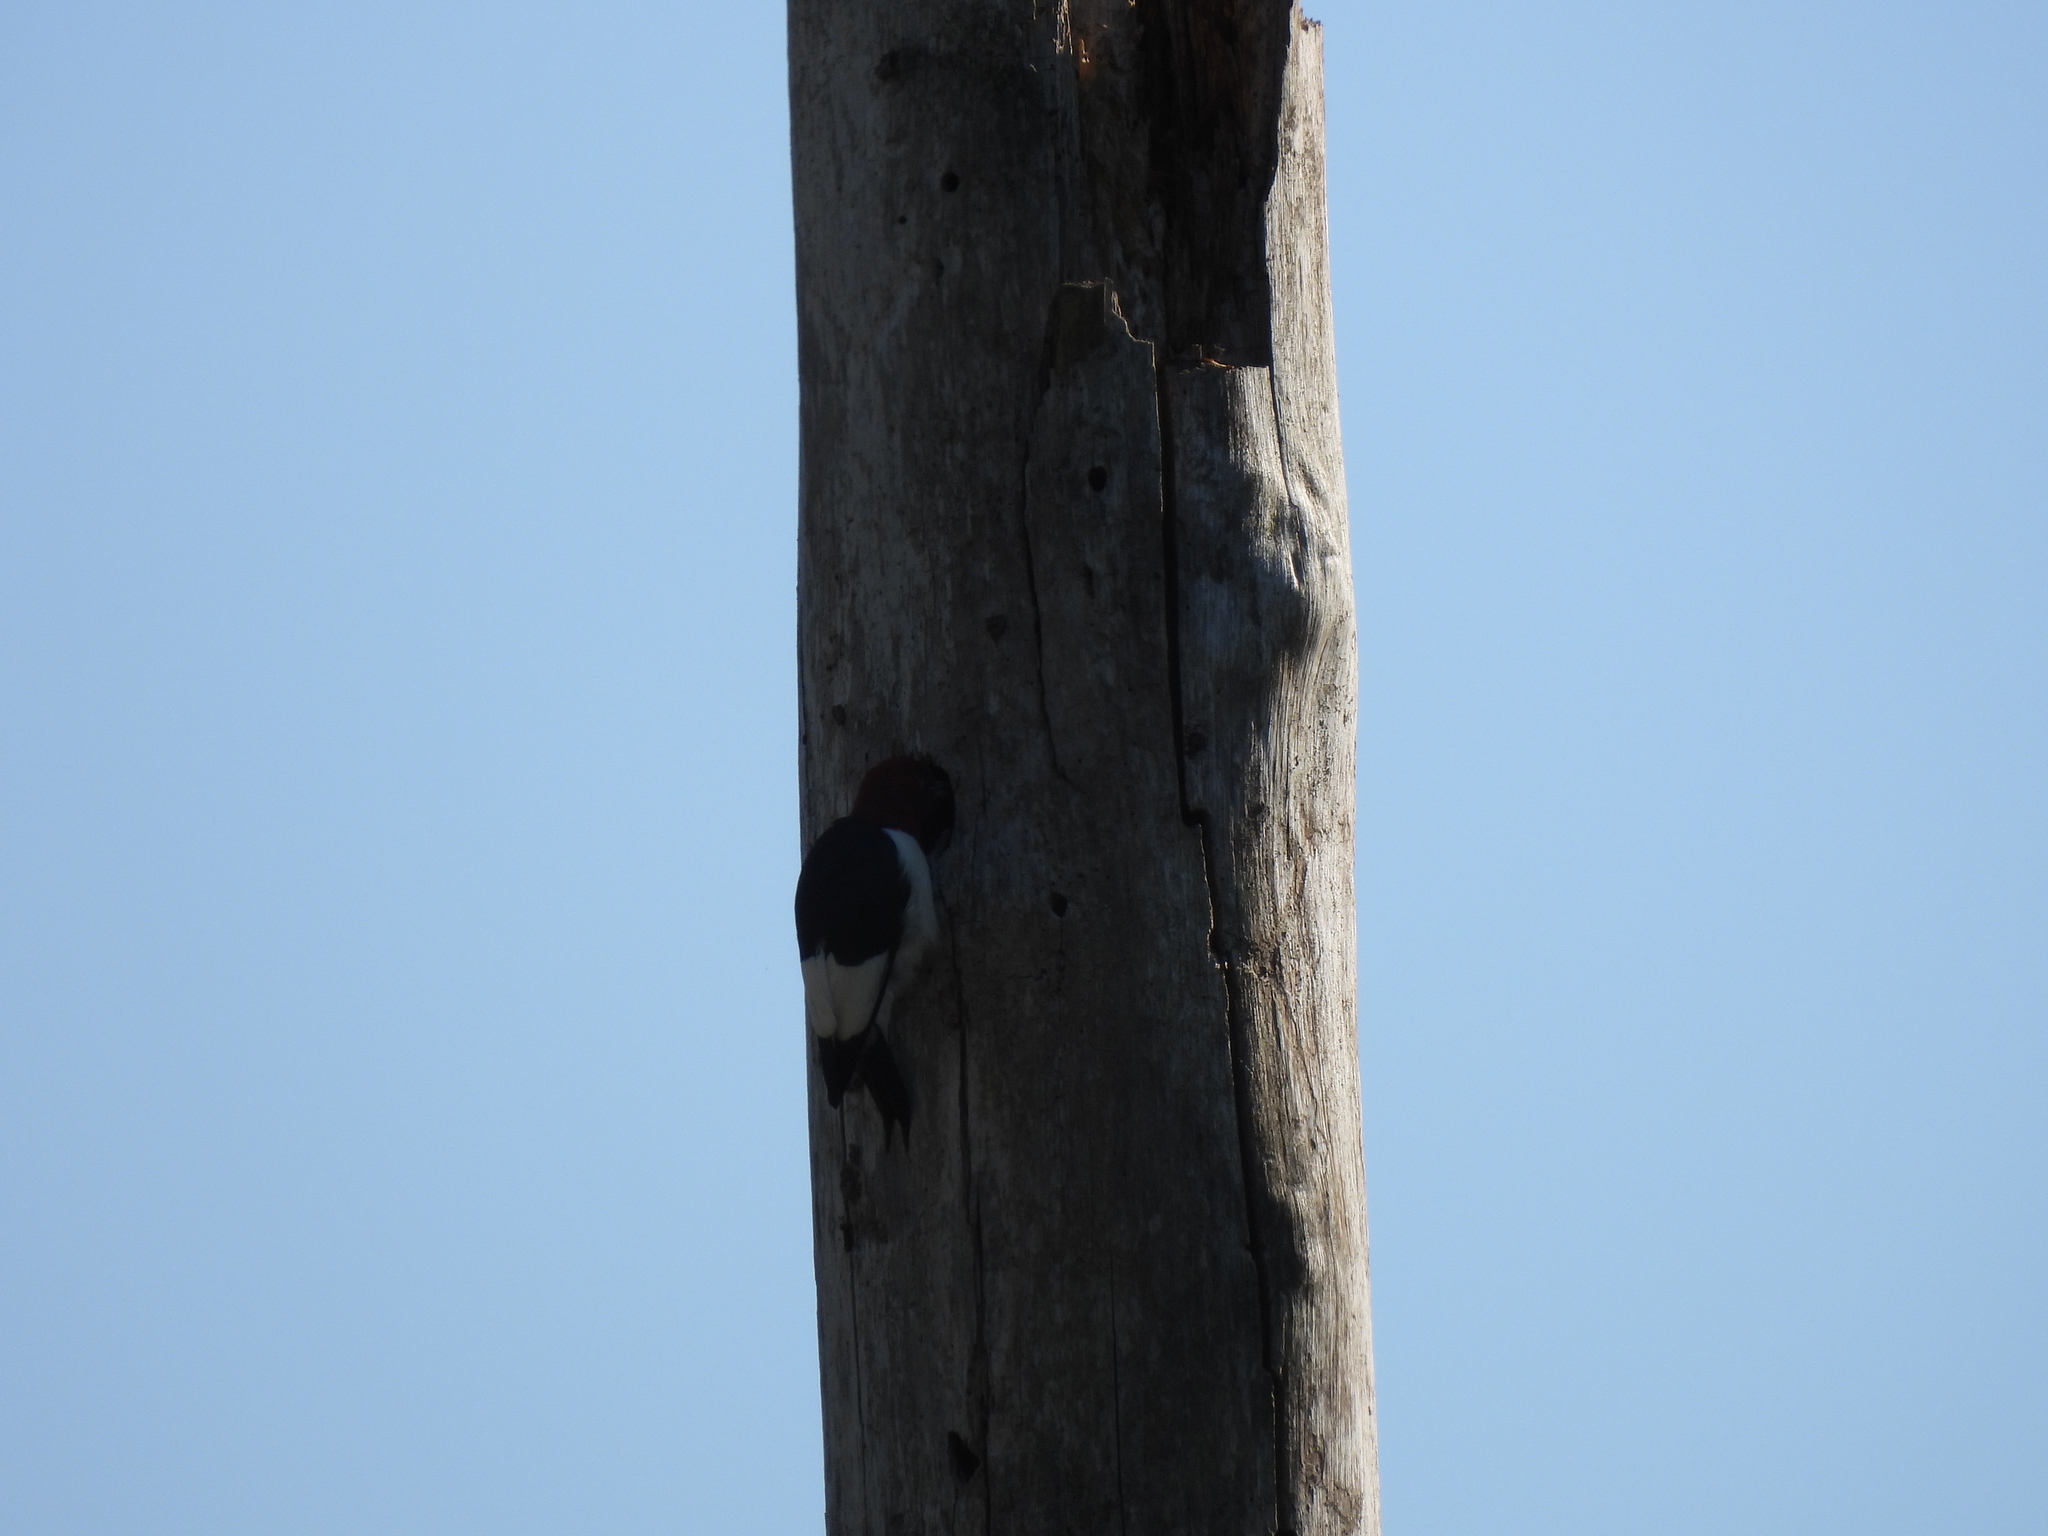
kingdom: Animalia
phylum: Chordata
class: Aves
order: Piciformes
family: Picidae
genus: Melanerpes
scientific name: Melanerpes erythrocephalus
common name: Red-headed woodpecker
